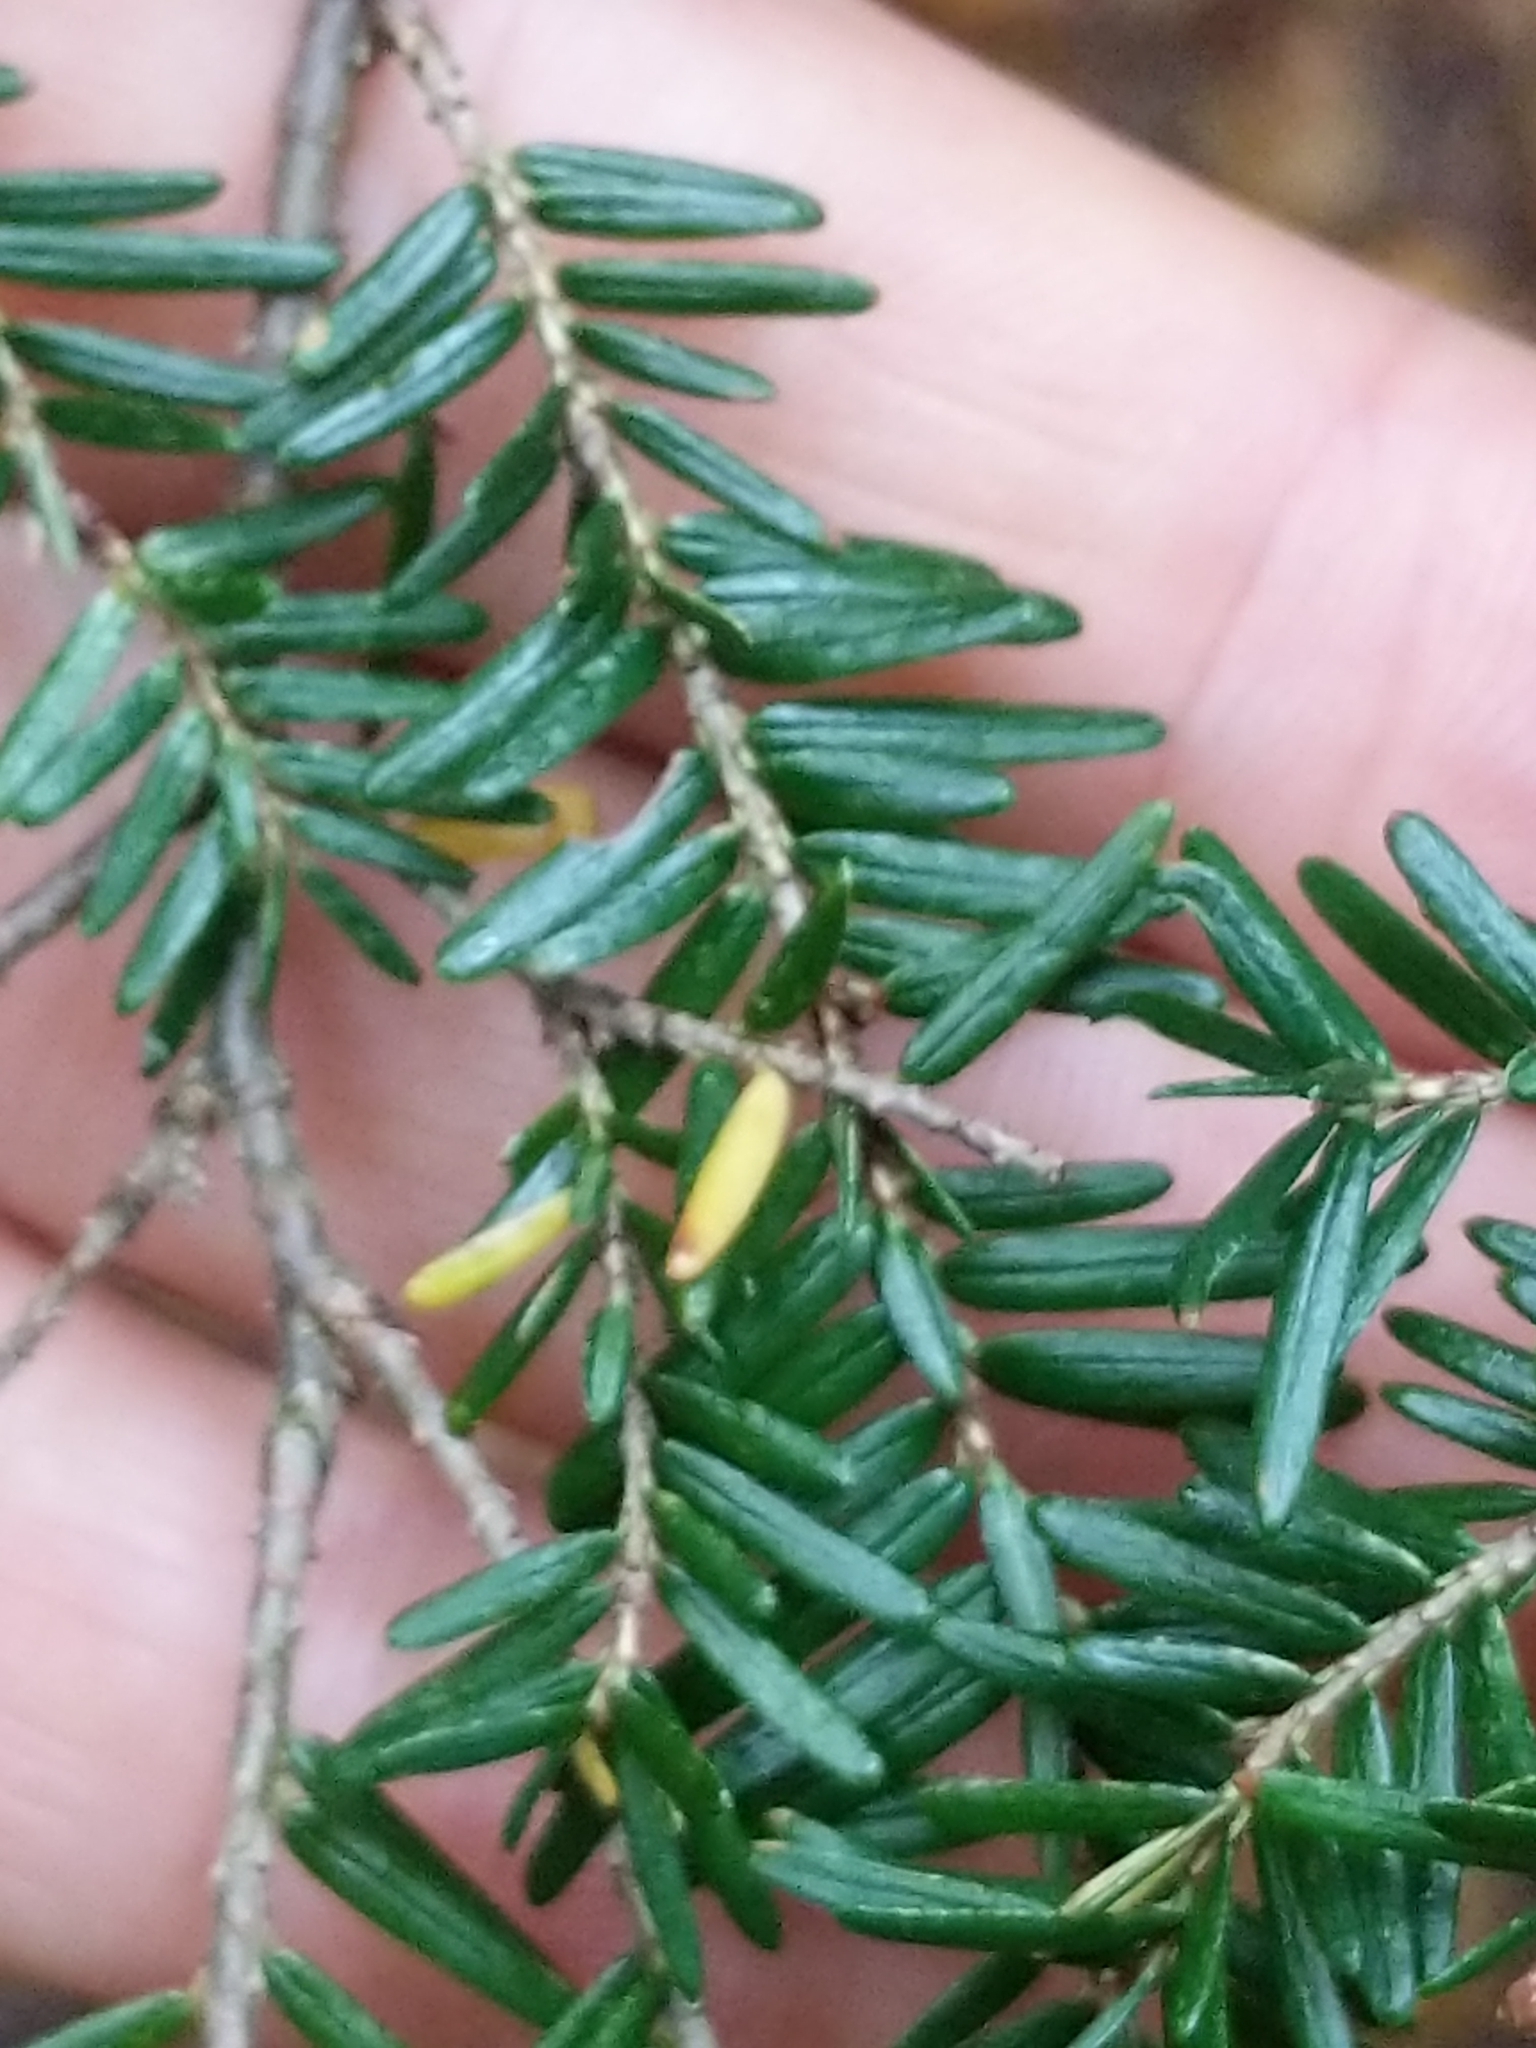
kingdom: Plantae
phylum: Tracheophyta
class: Pinopsida
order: Pinales
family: Pinaceae
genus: Tsuga
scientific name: Tsuga canadensis
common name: Eastern hemlock
